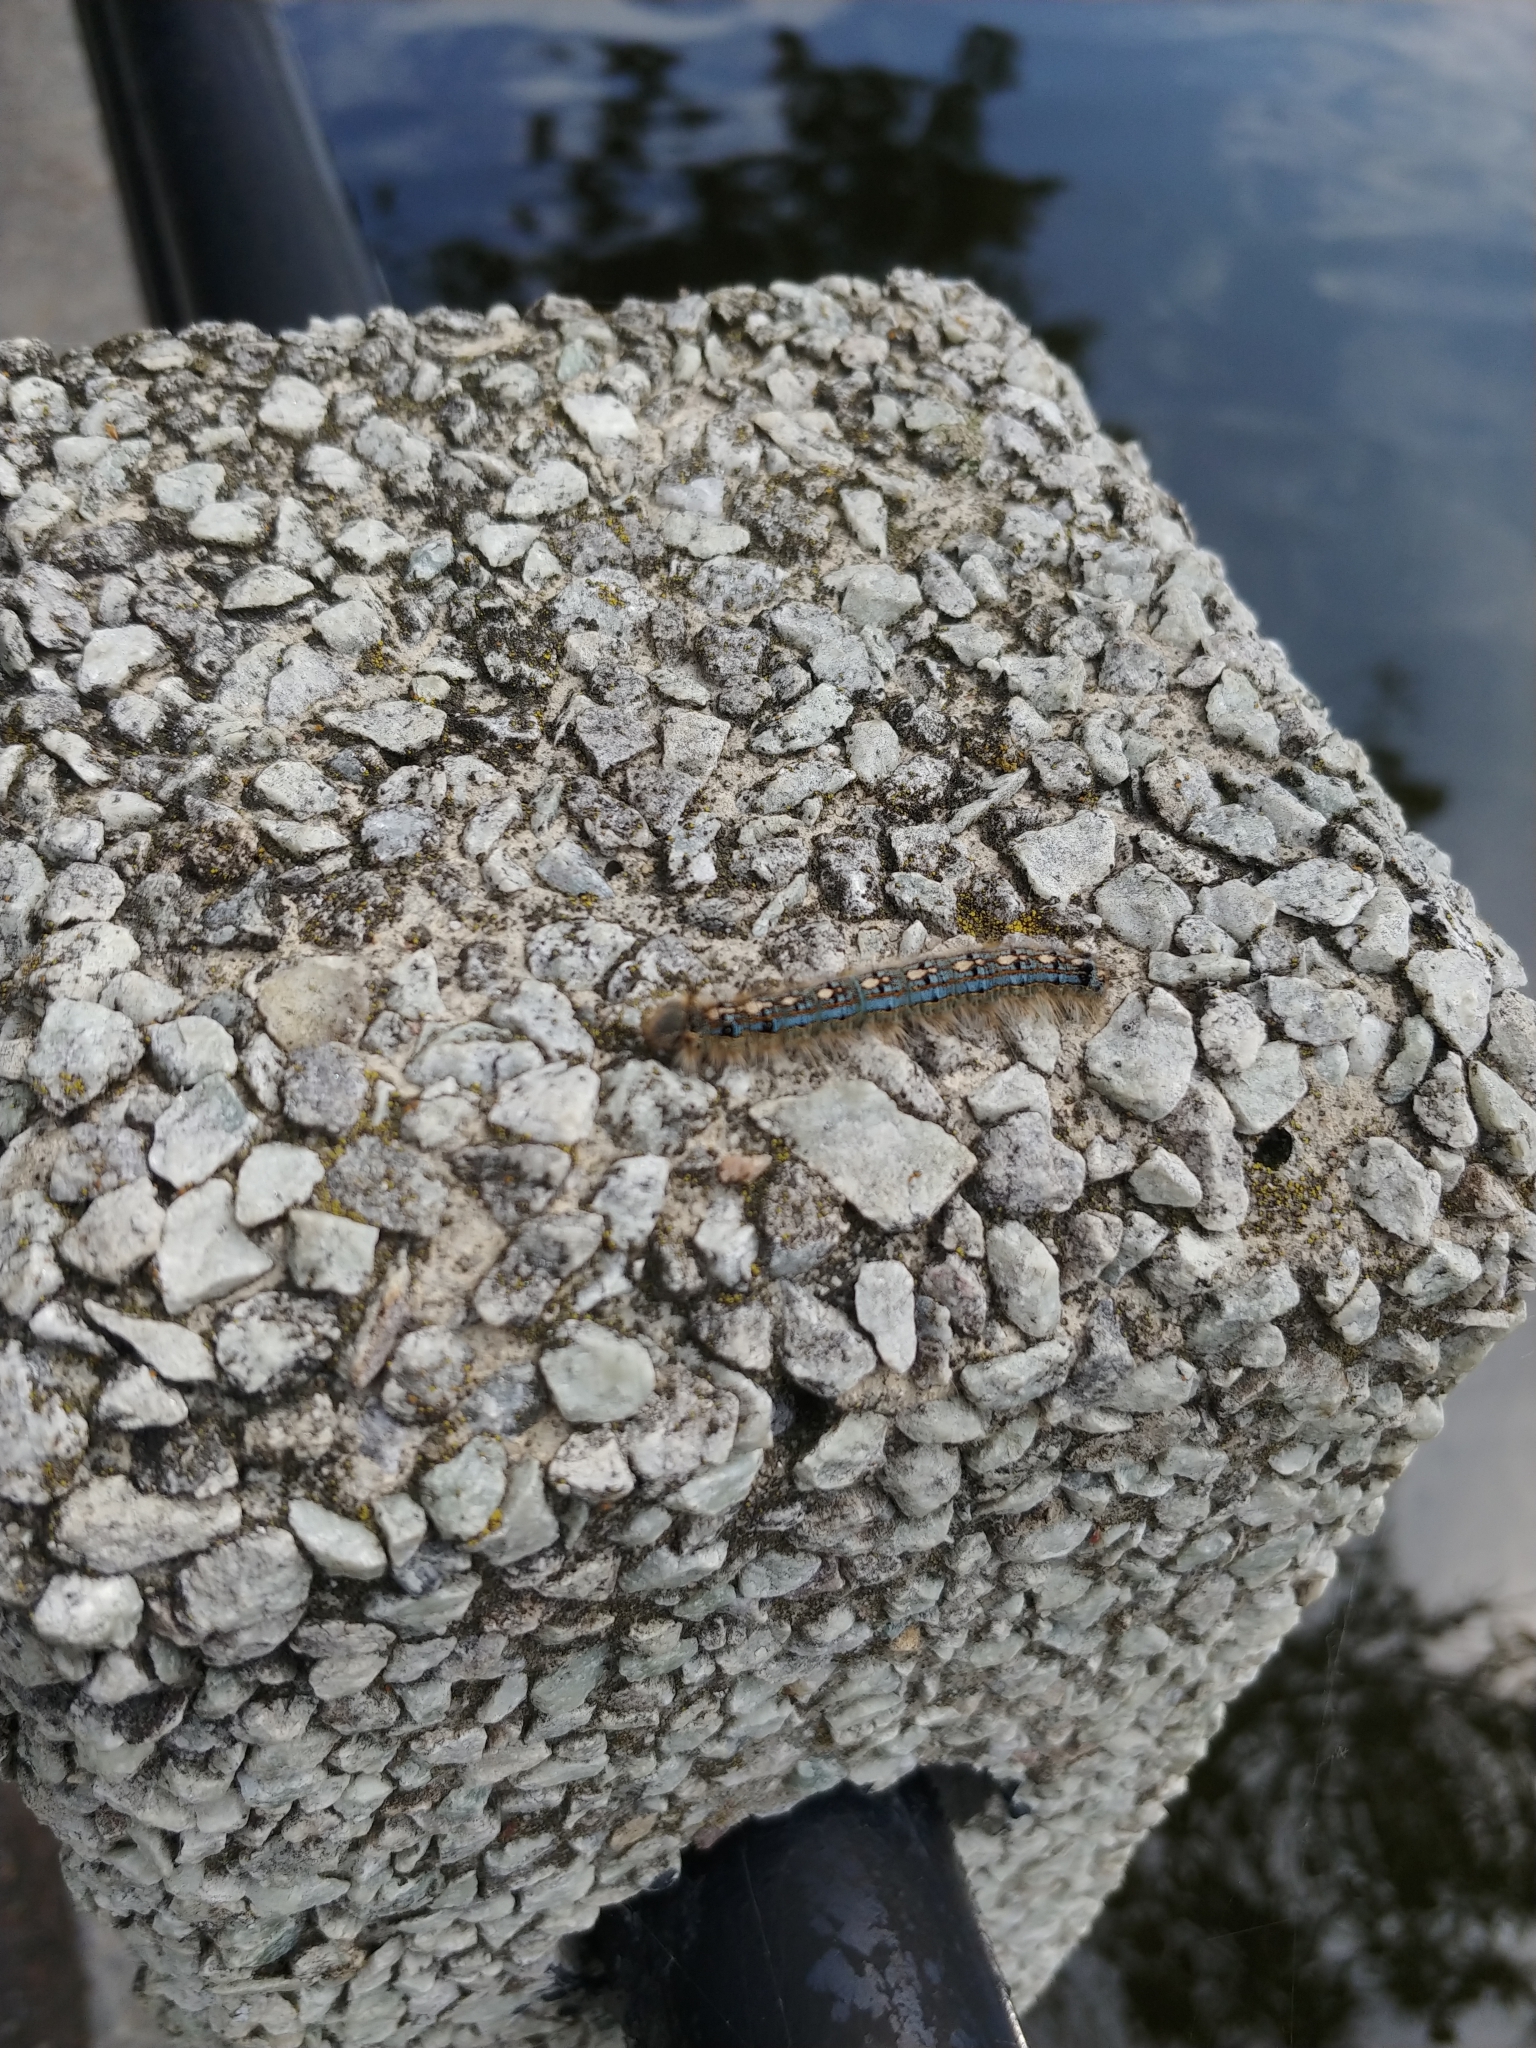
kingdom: Animalia
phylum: Arthropoda
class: Insecta
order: Lepidoptera
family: Lasiocampidae
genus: Malacosoma
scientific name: Malacosoma disstria
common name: Forest tent caterpillar
